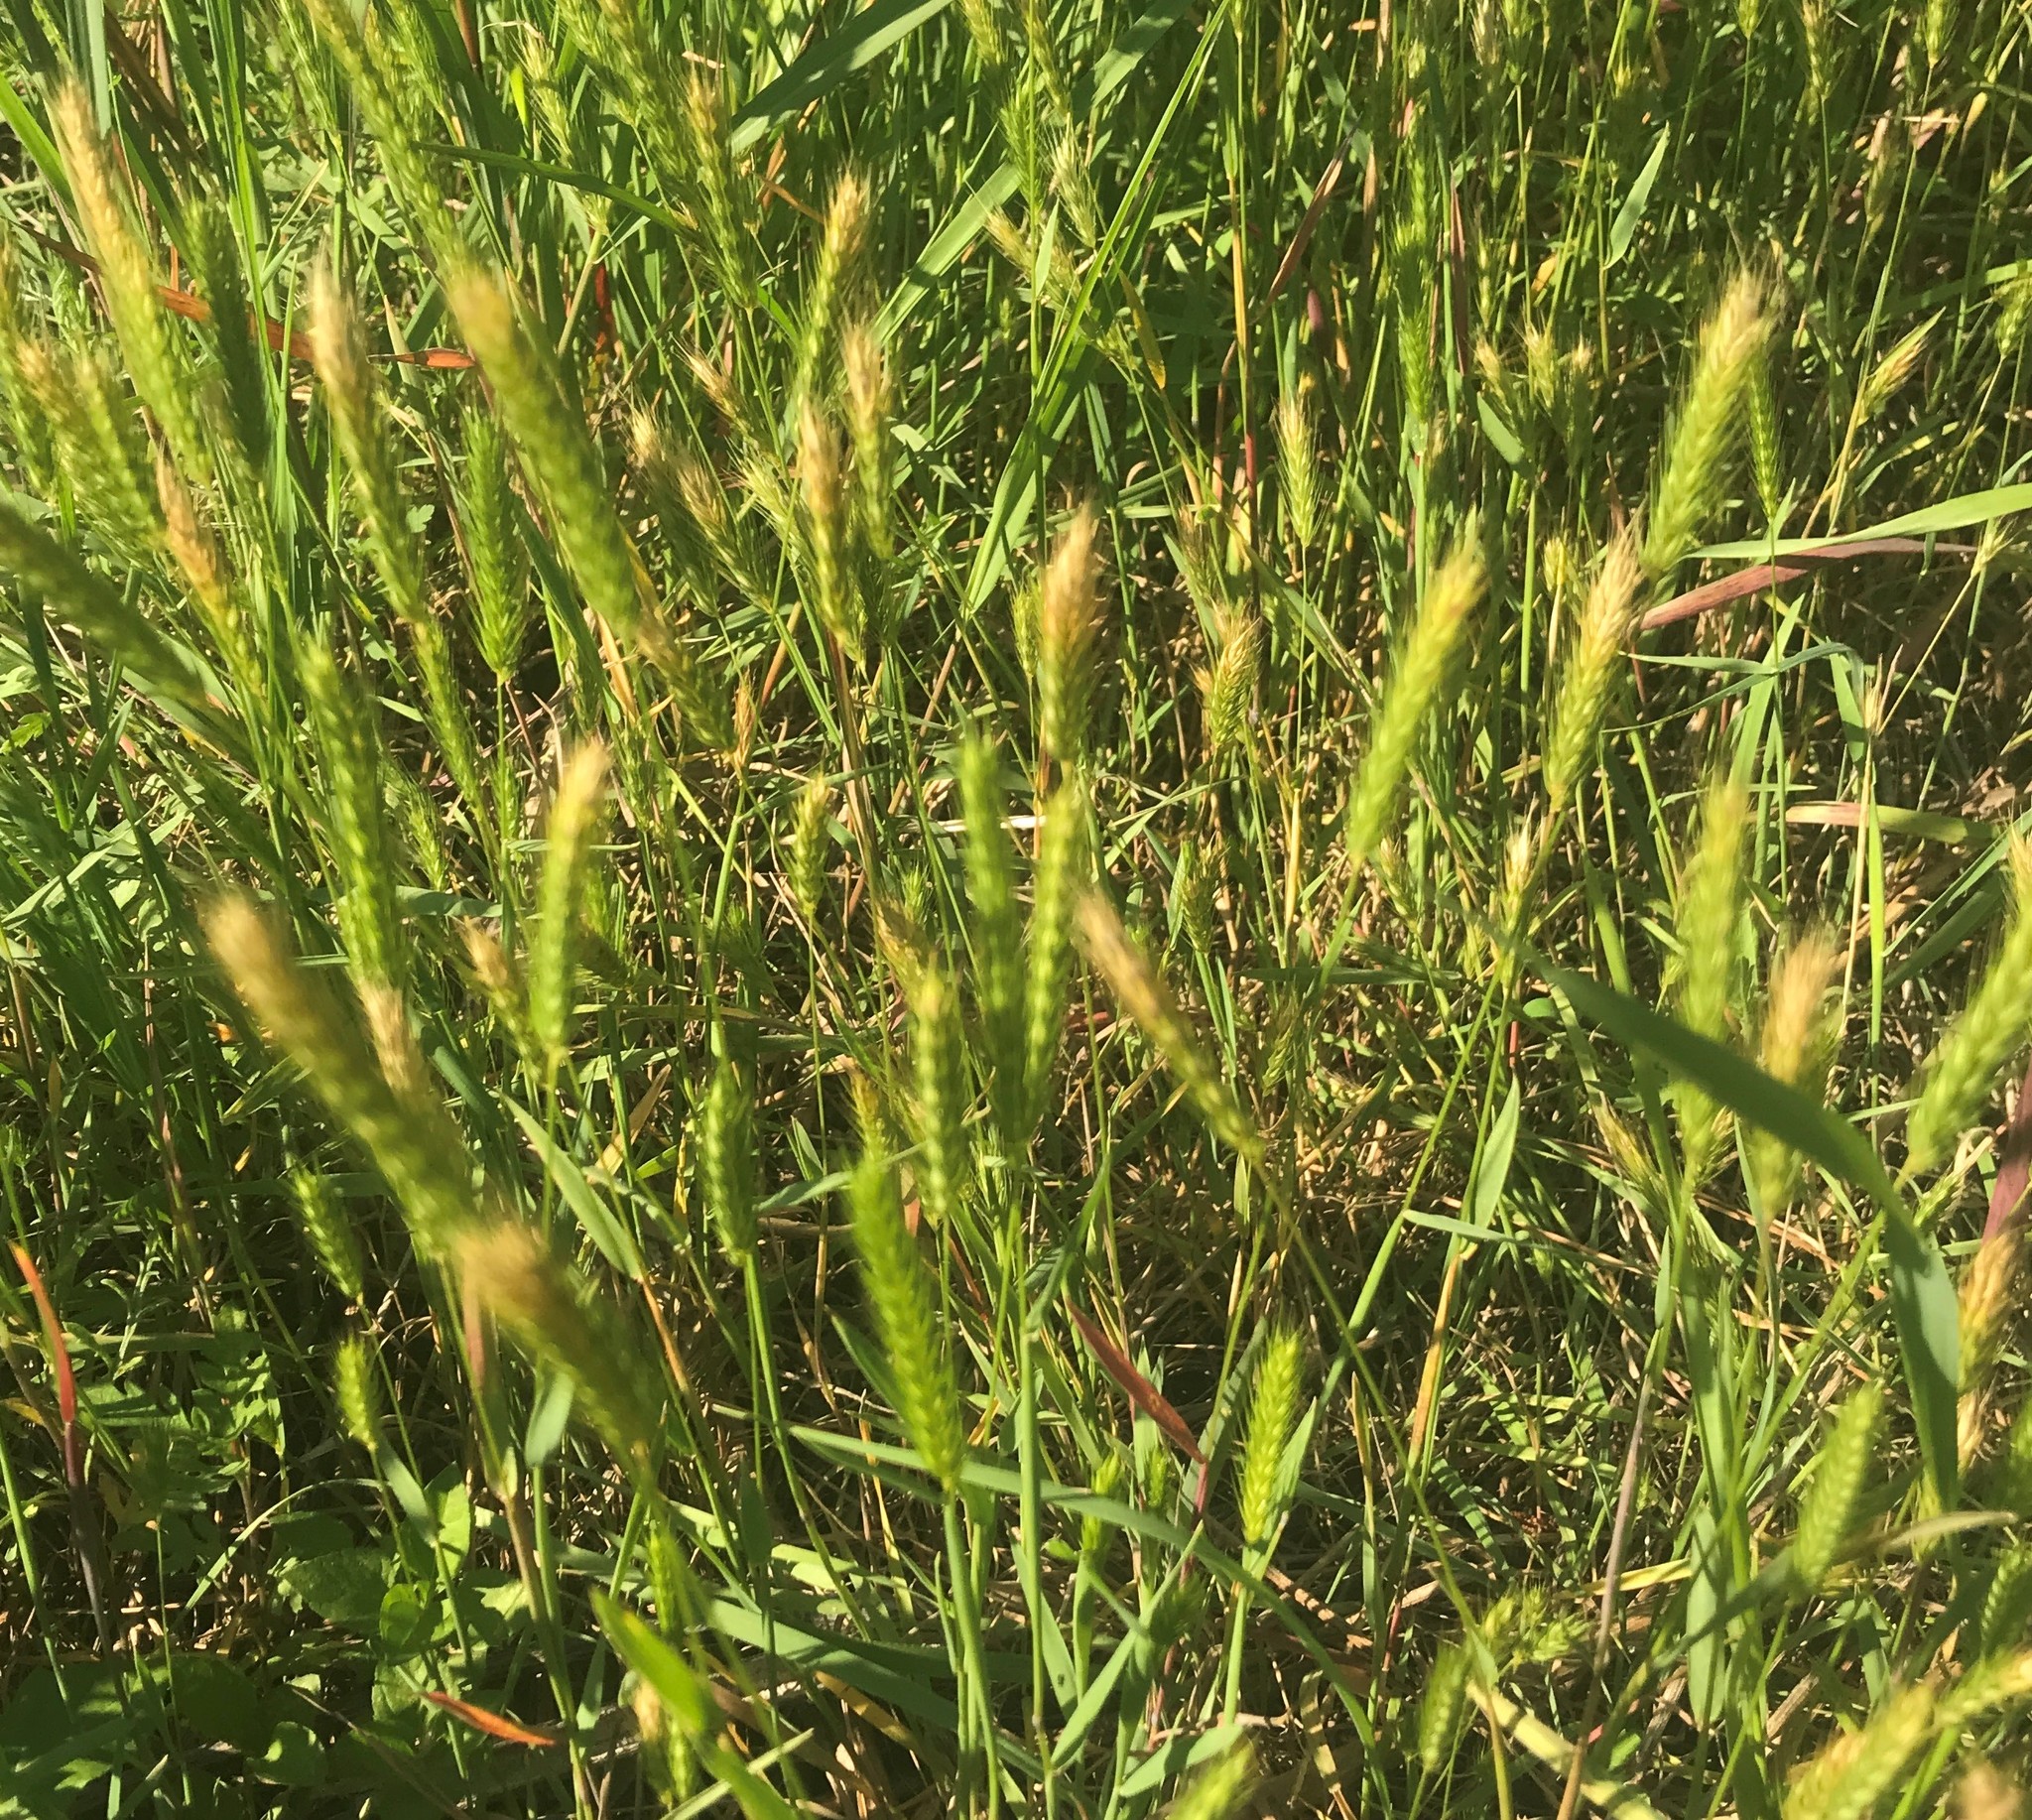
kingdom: Plantae
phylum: Tracheophyta
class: Liliopsida
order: Poales
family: Poaceae
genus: Hordeum
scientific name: Hordeum pusillum
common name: Little barley
